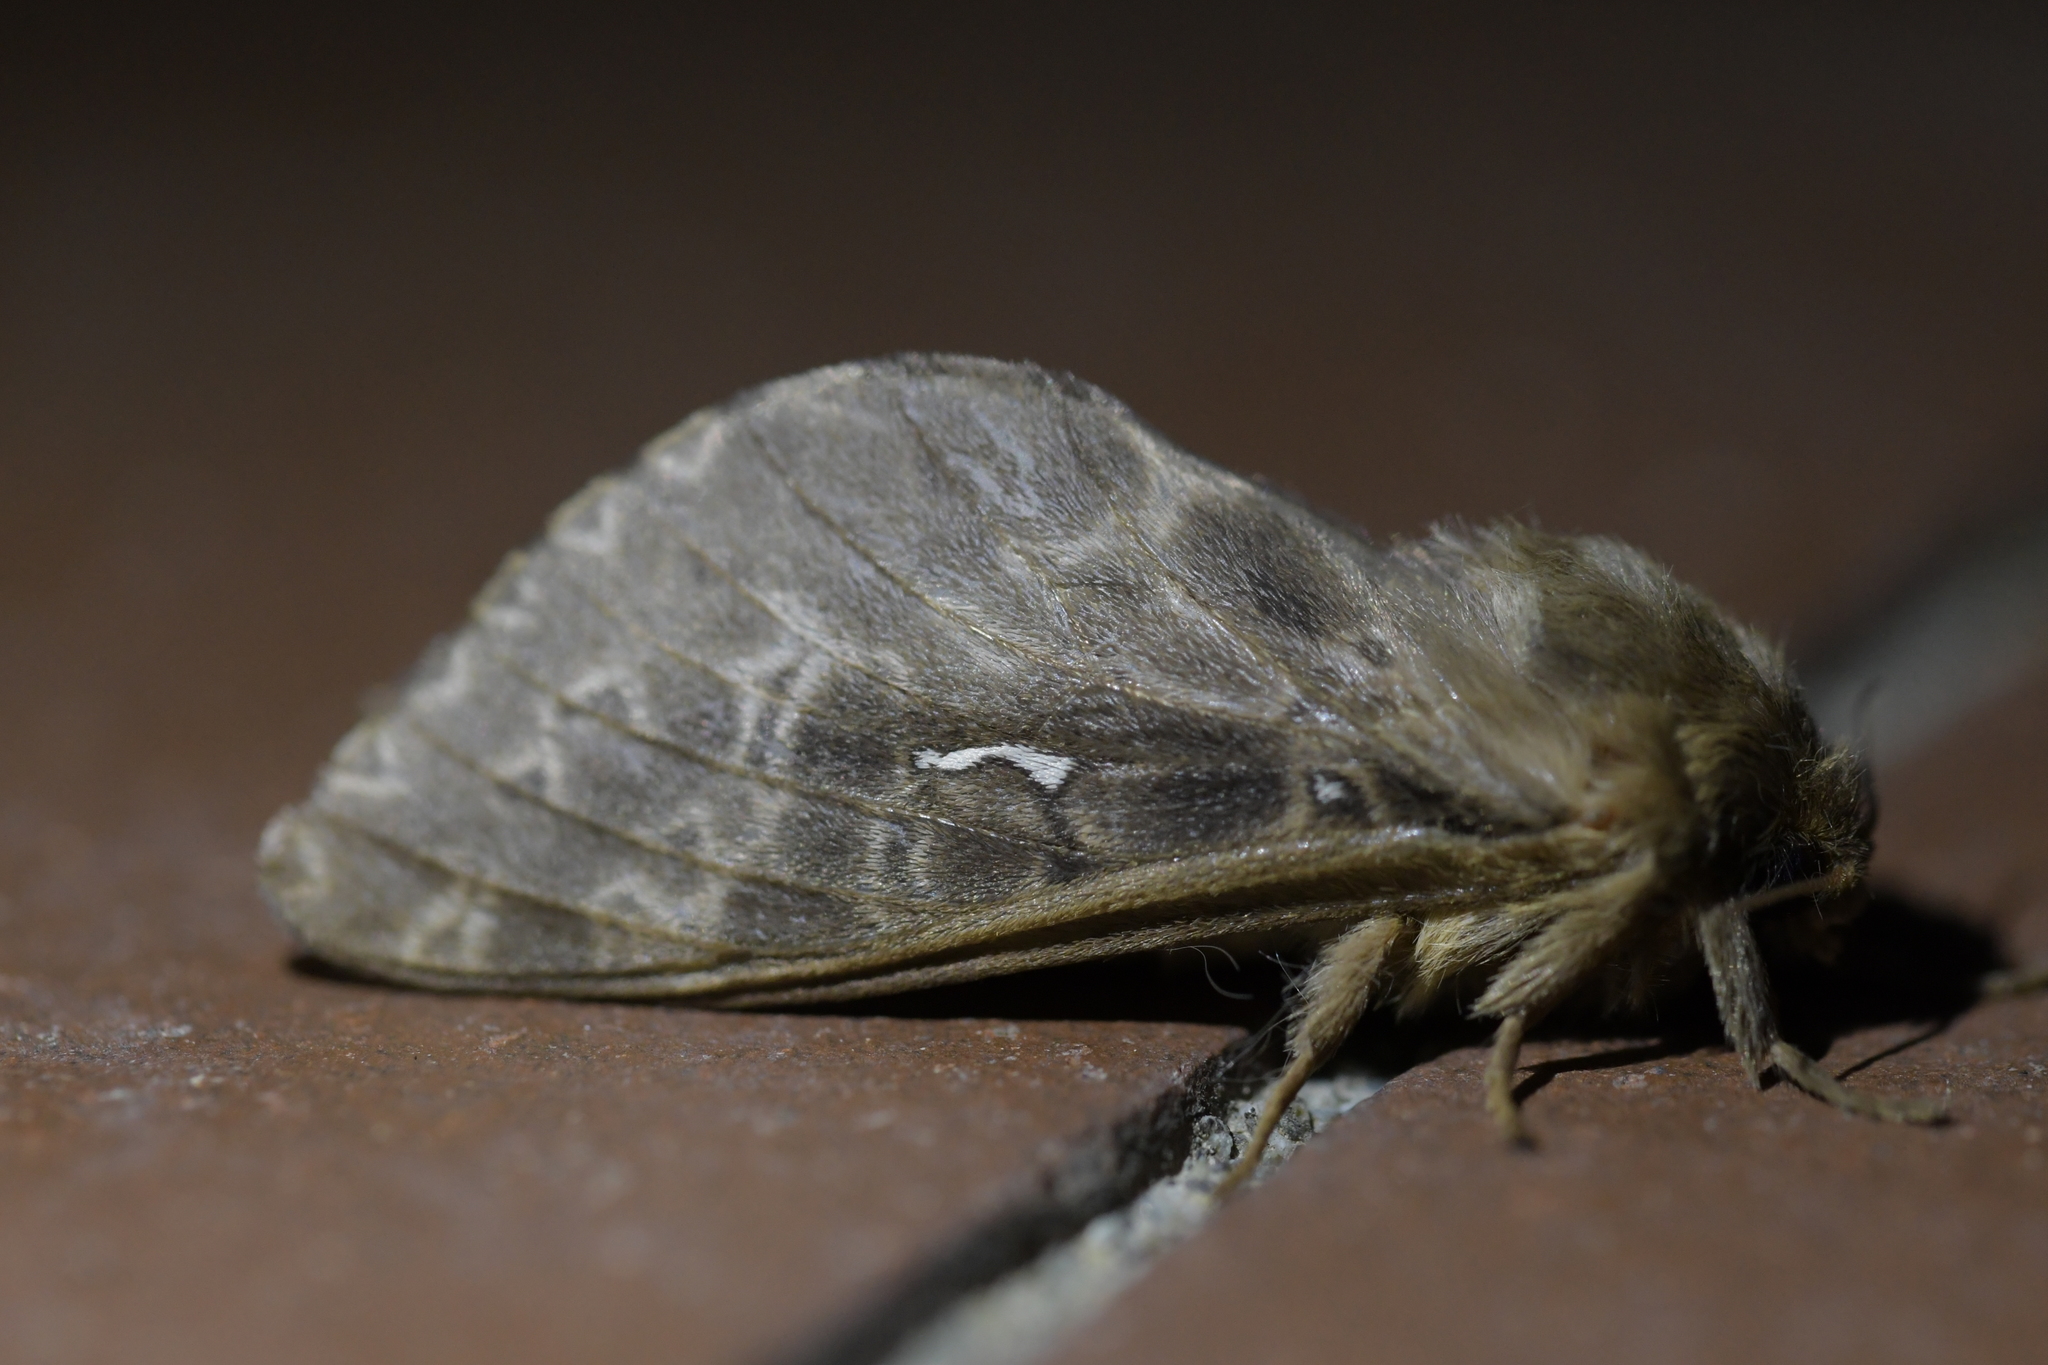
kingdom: Animalia
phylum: Arthropoda
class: Insecta
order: Lepidoptera
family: Hepialidae
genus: Wiseana
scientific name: Wiseana cervinata
